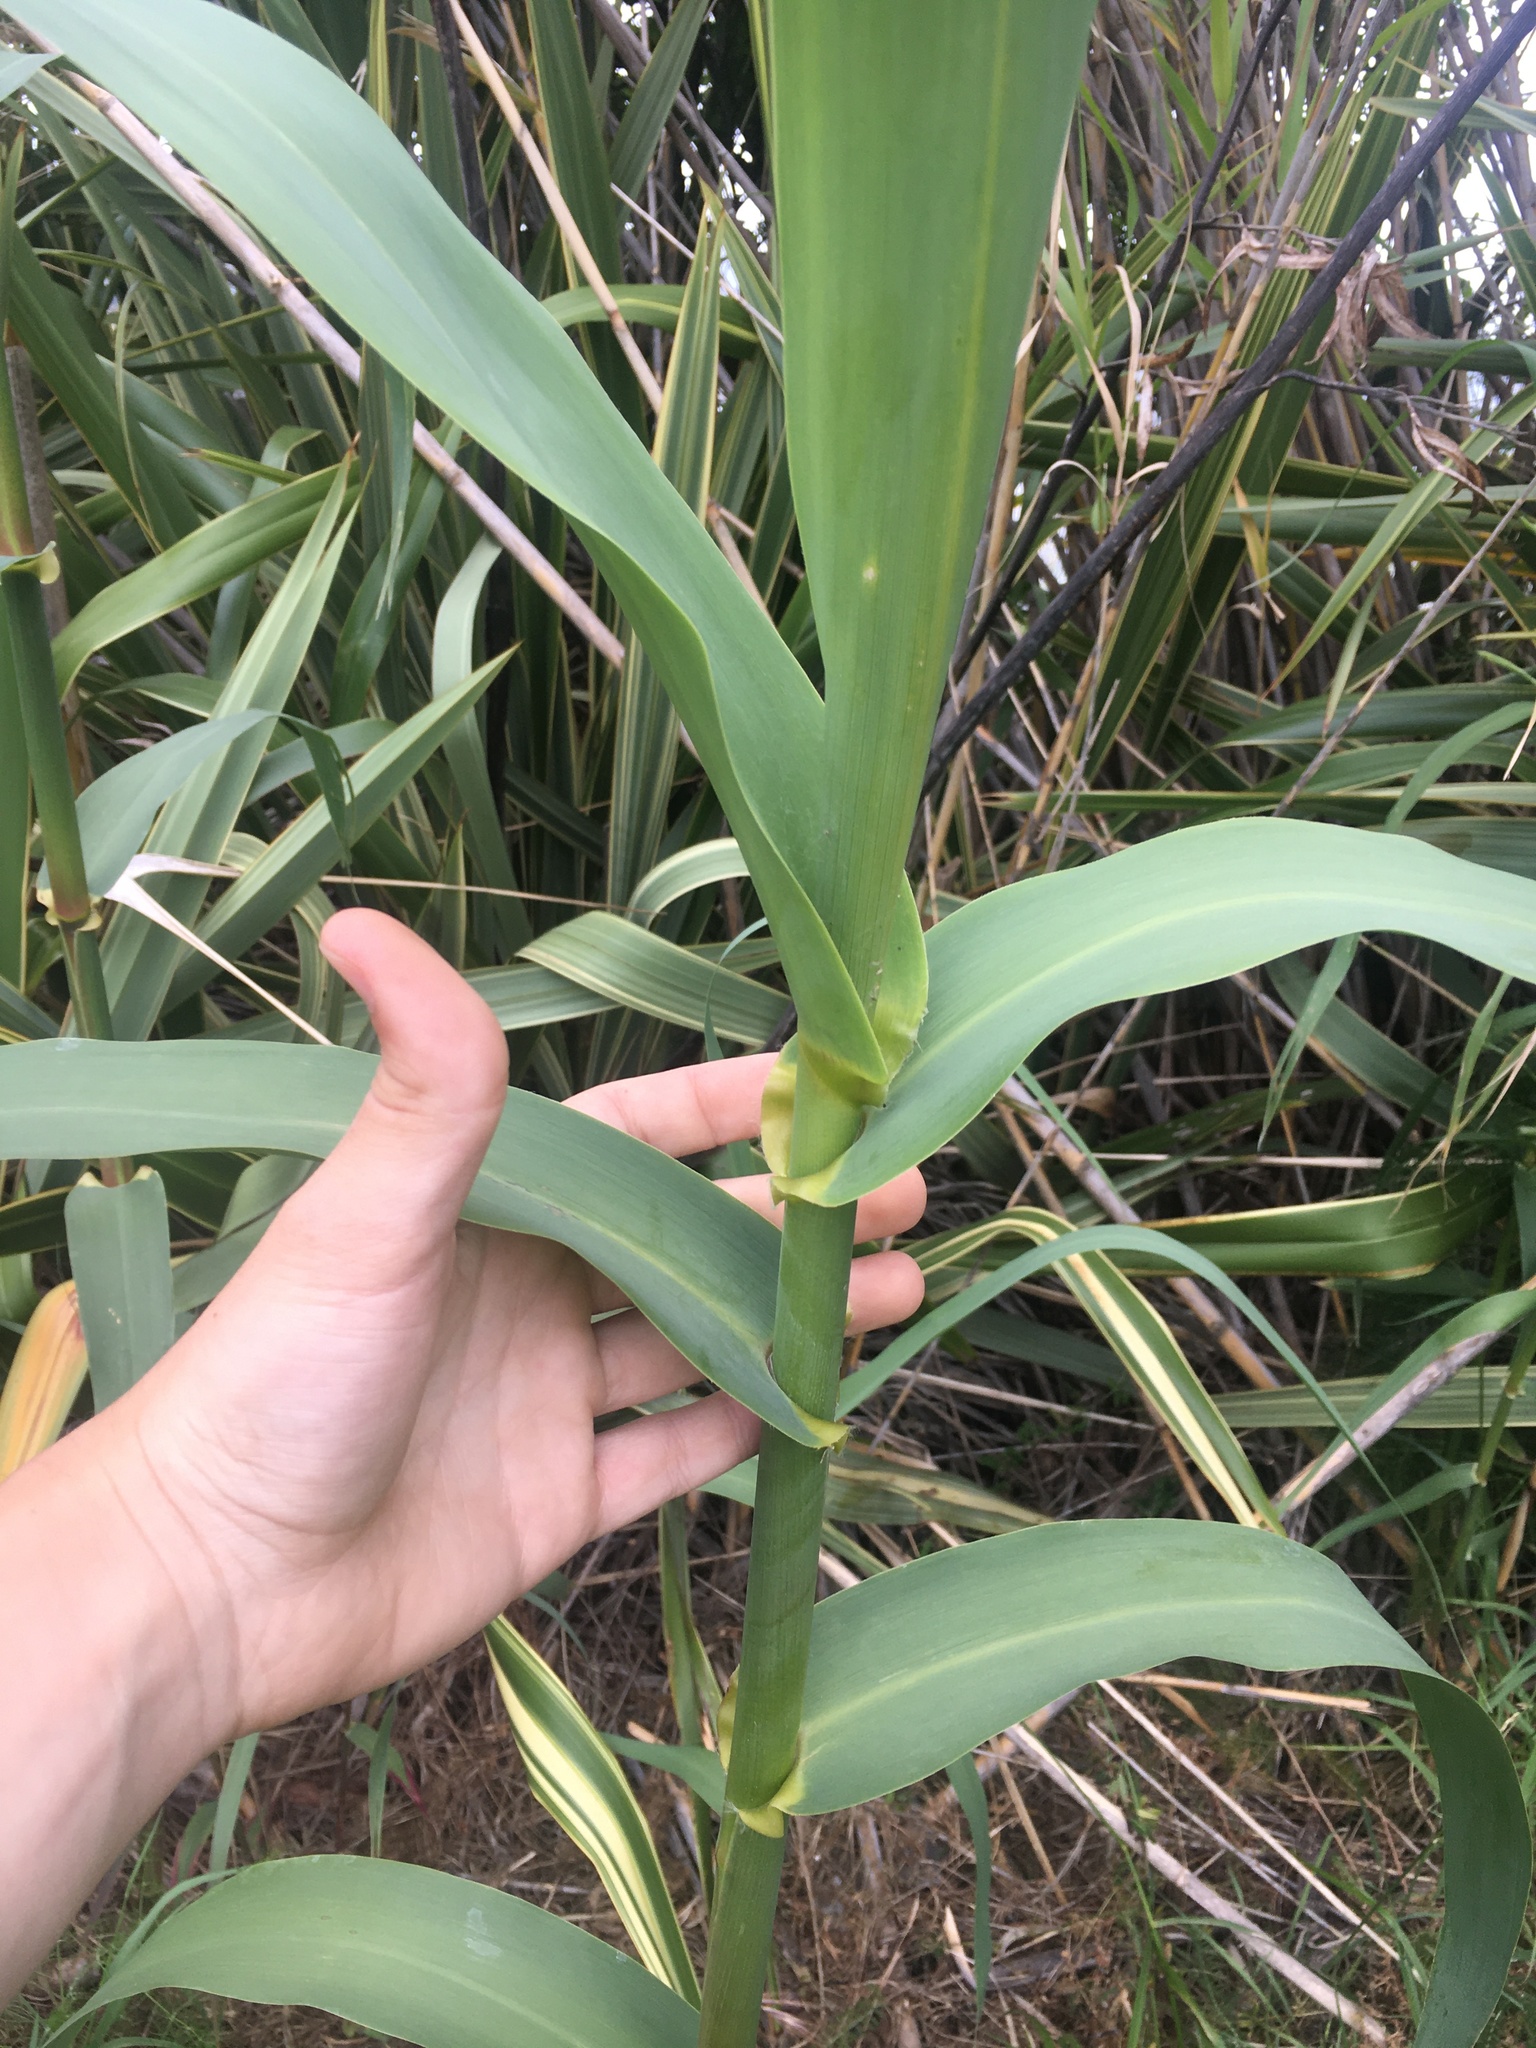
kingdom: Plantae
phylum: Tracheophyta
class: Liliopsida
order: Poales
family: Poaceae
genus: Arundo
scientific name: Arundo donax
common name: Giant reed
